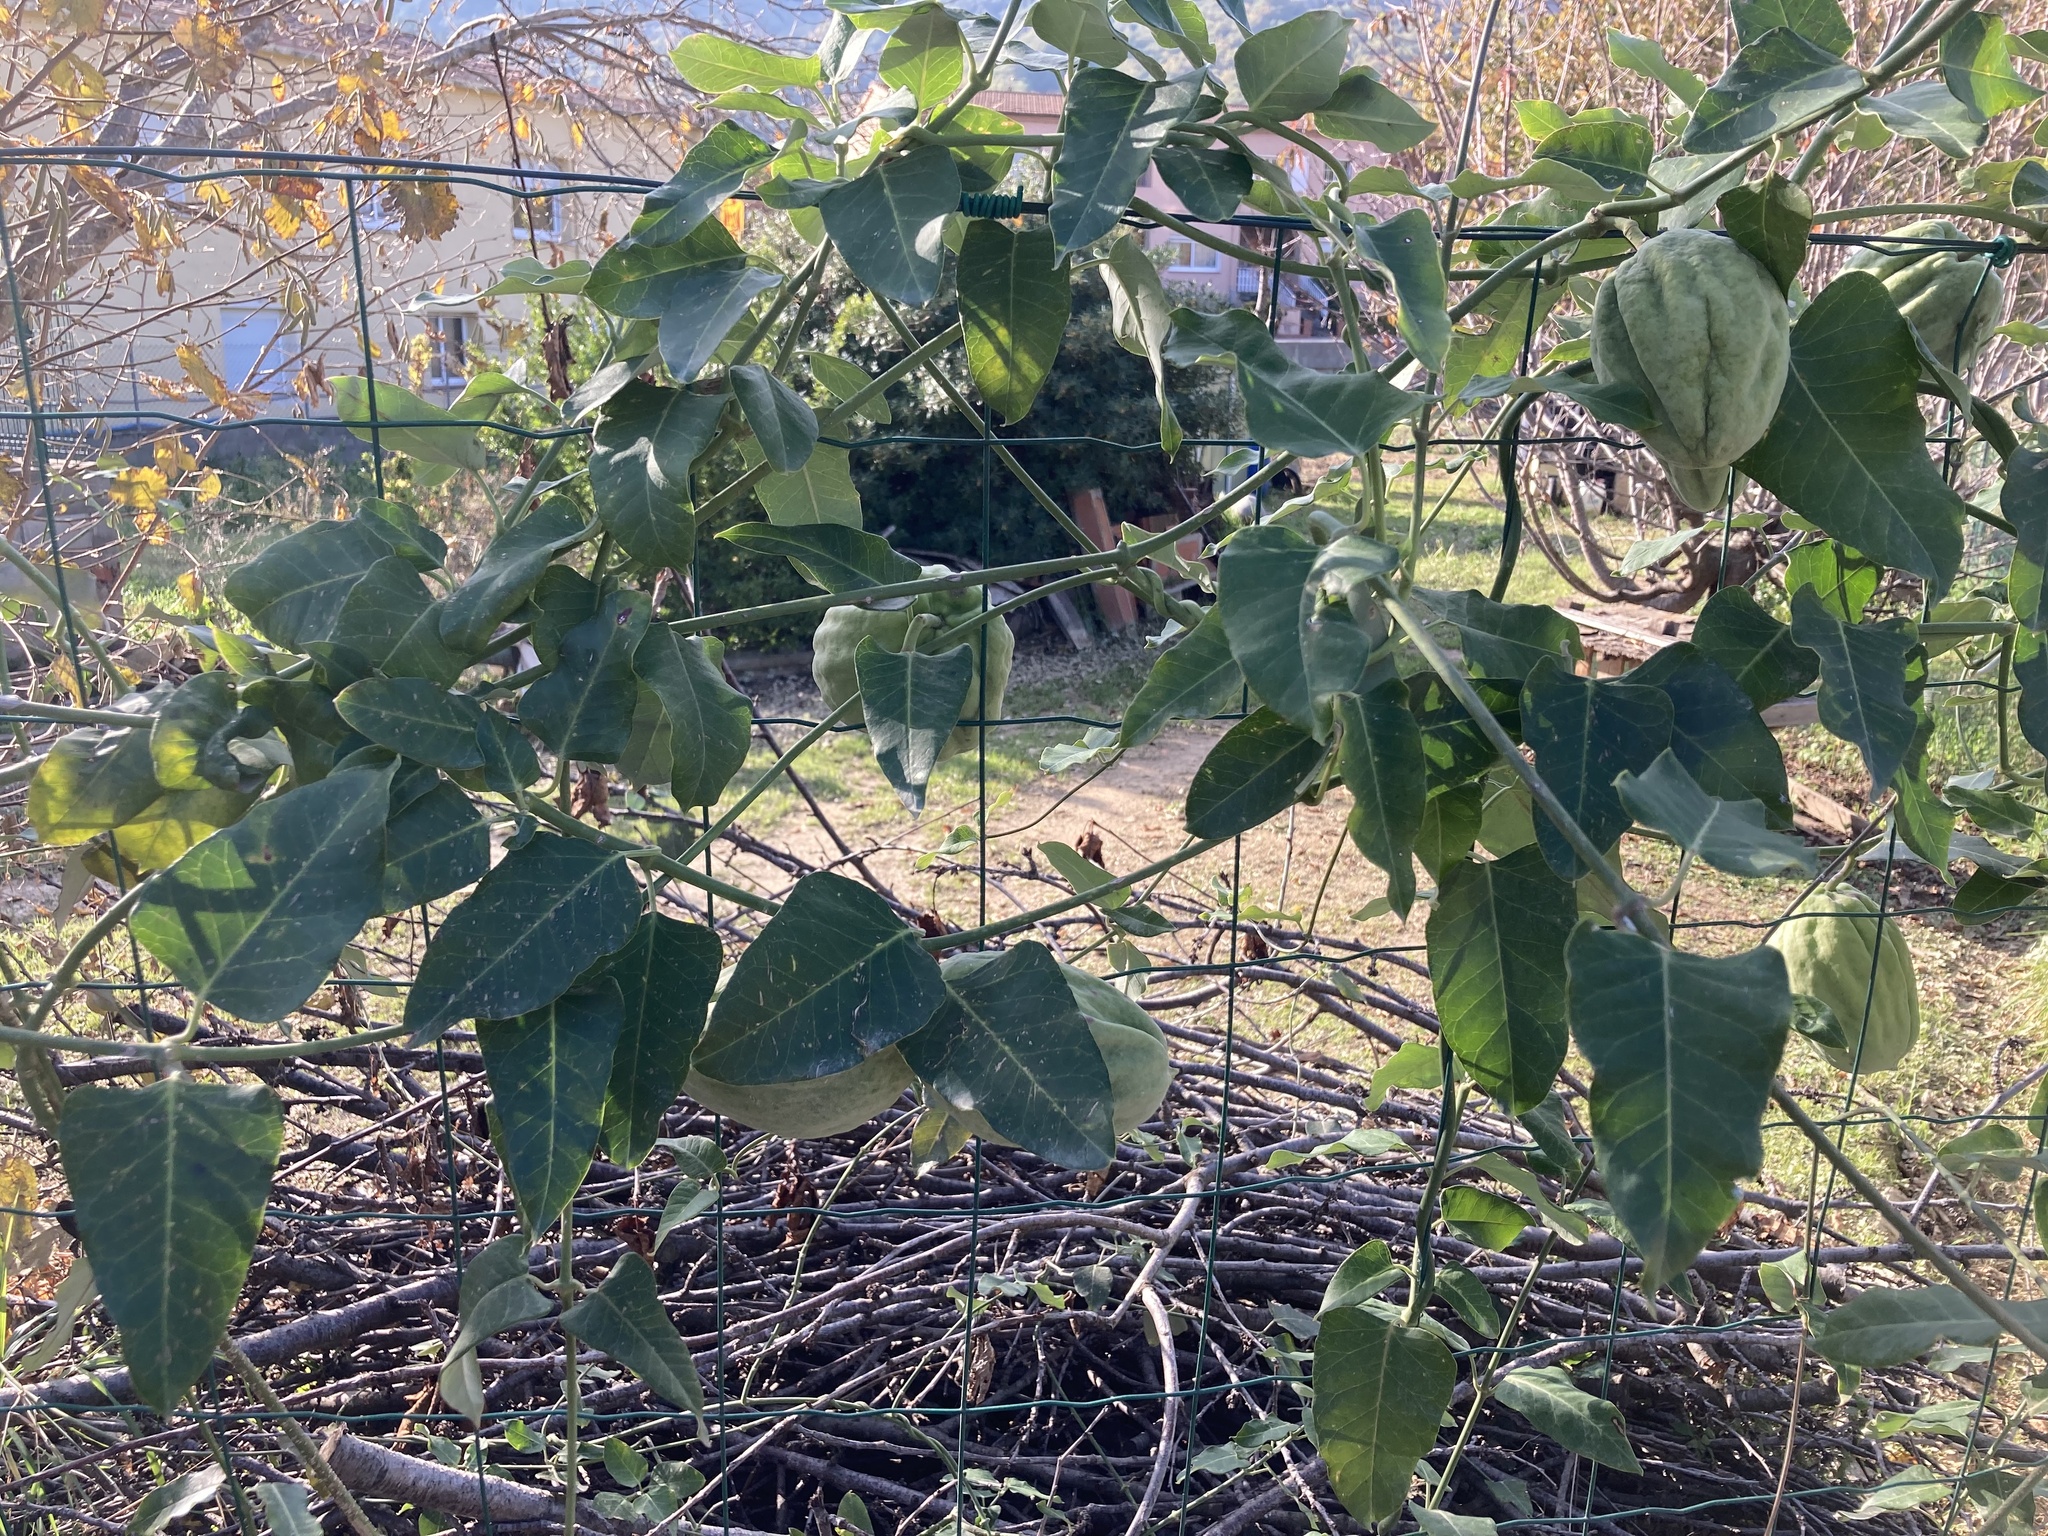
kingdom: Plantae
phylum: Tracheophyta
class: Magnoliopsida
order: Gentianales
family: Apocynaceae
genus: Araujia
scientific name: Araujia sericifera
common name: White bladderflower
